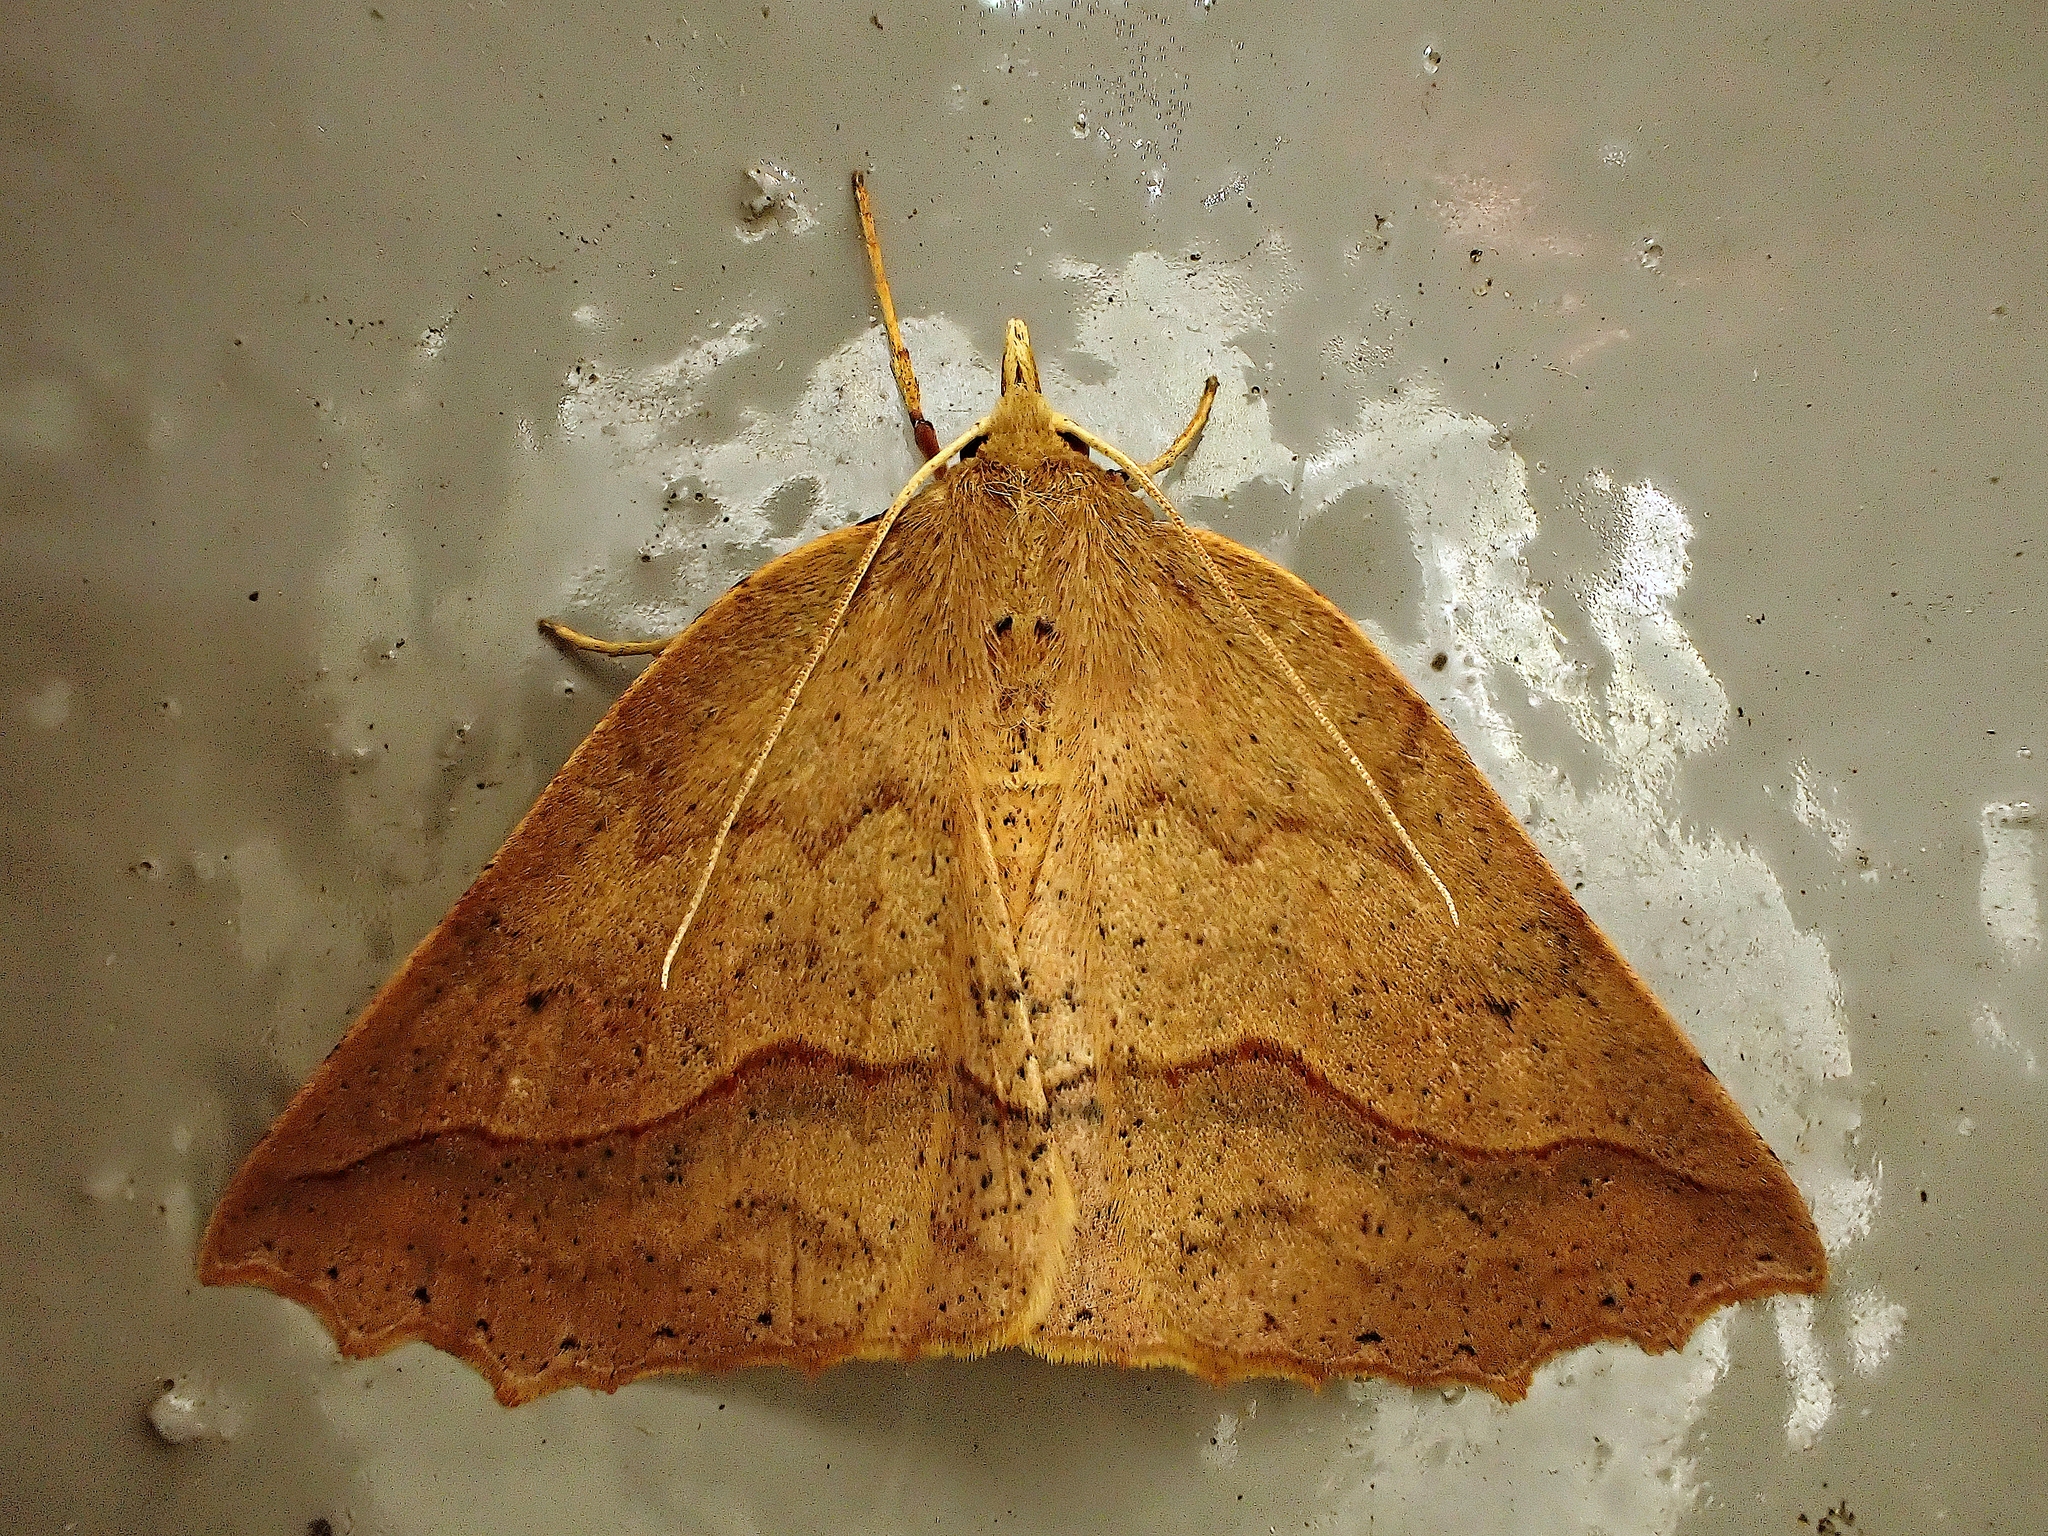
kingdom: Animalia
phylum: Arthropoda
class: Insecta
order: Lepidoptera
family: Geometridae
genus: Ischalis
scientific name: Ischalis variabilis
